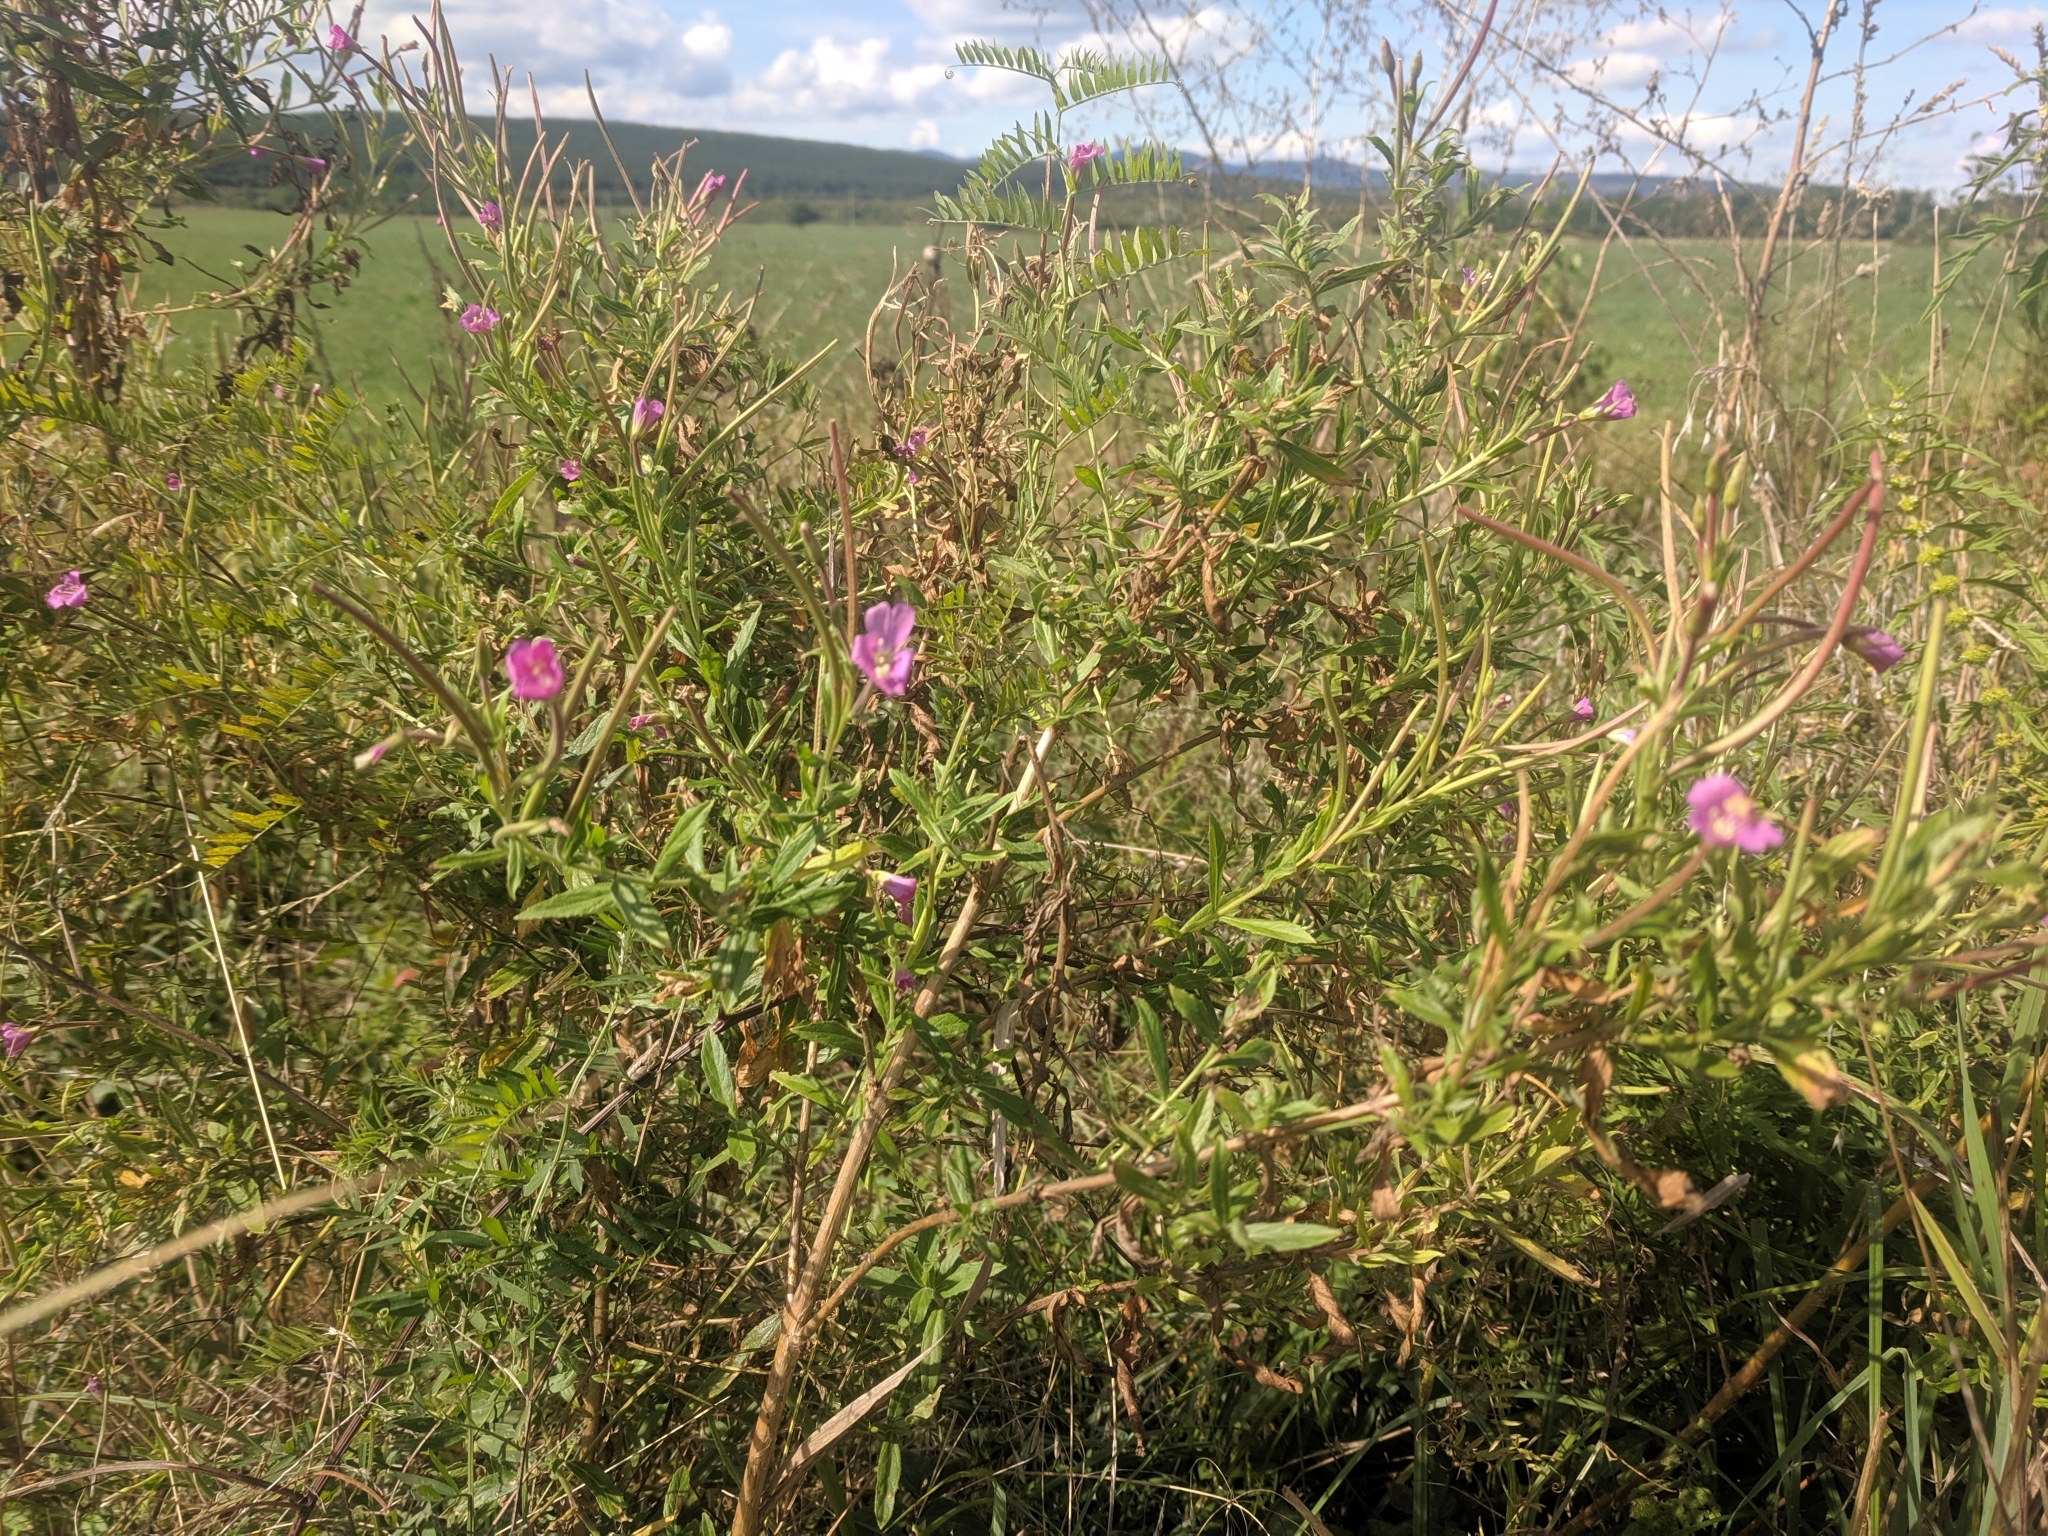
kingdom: Plantae
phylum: Tracheophyta
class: Magnoliopsida
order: Myrtales
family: Onagraceae
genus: Epilobium
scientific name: Epilobium hirsutum
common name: Great willowherb
